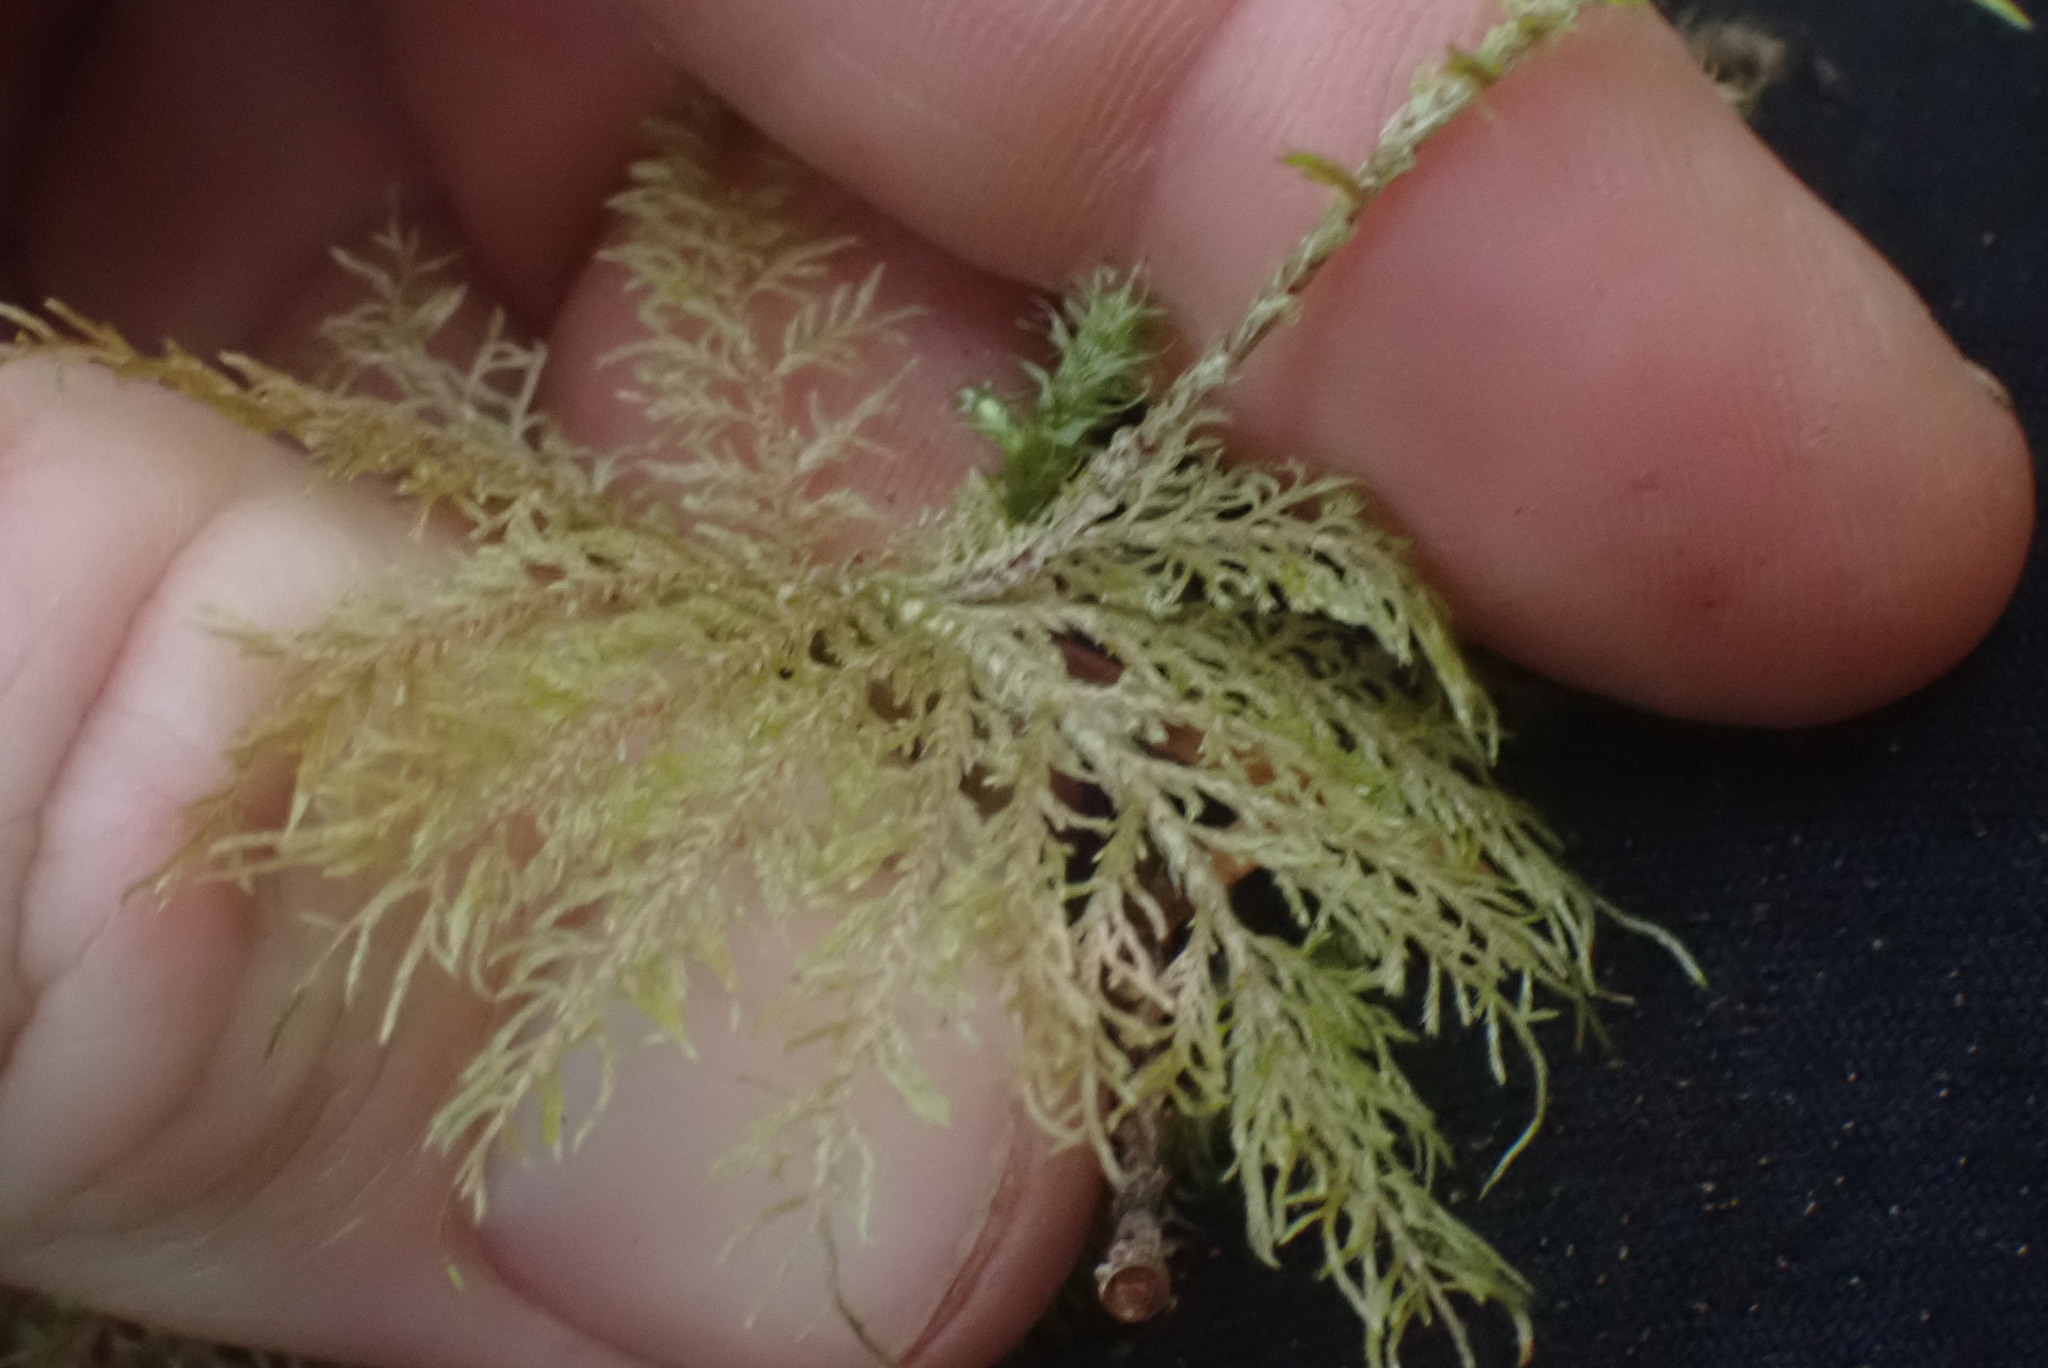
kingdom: Plantae
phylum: Bryophyta
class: Bryopsida
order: Hypnales
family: Hylocomiaceae
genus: Hylocomium
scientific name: Hylocomium splendens
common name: Stairstep moss
